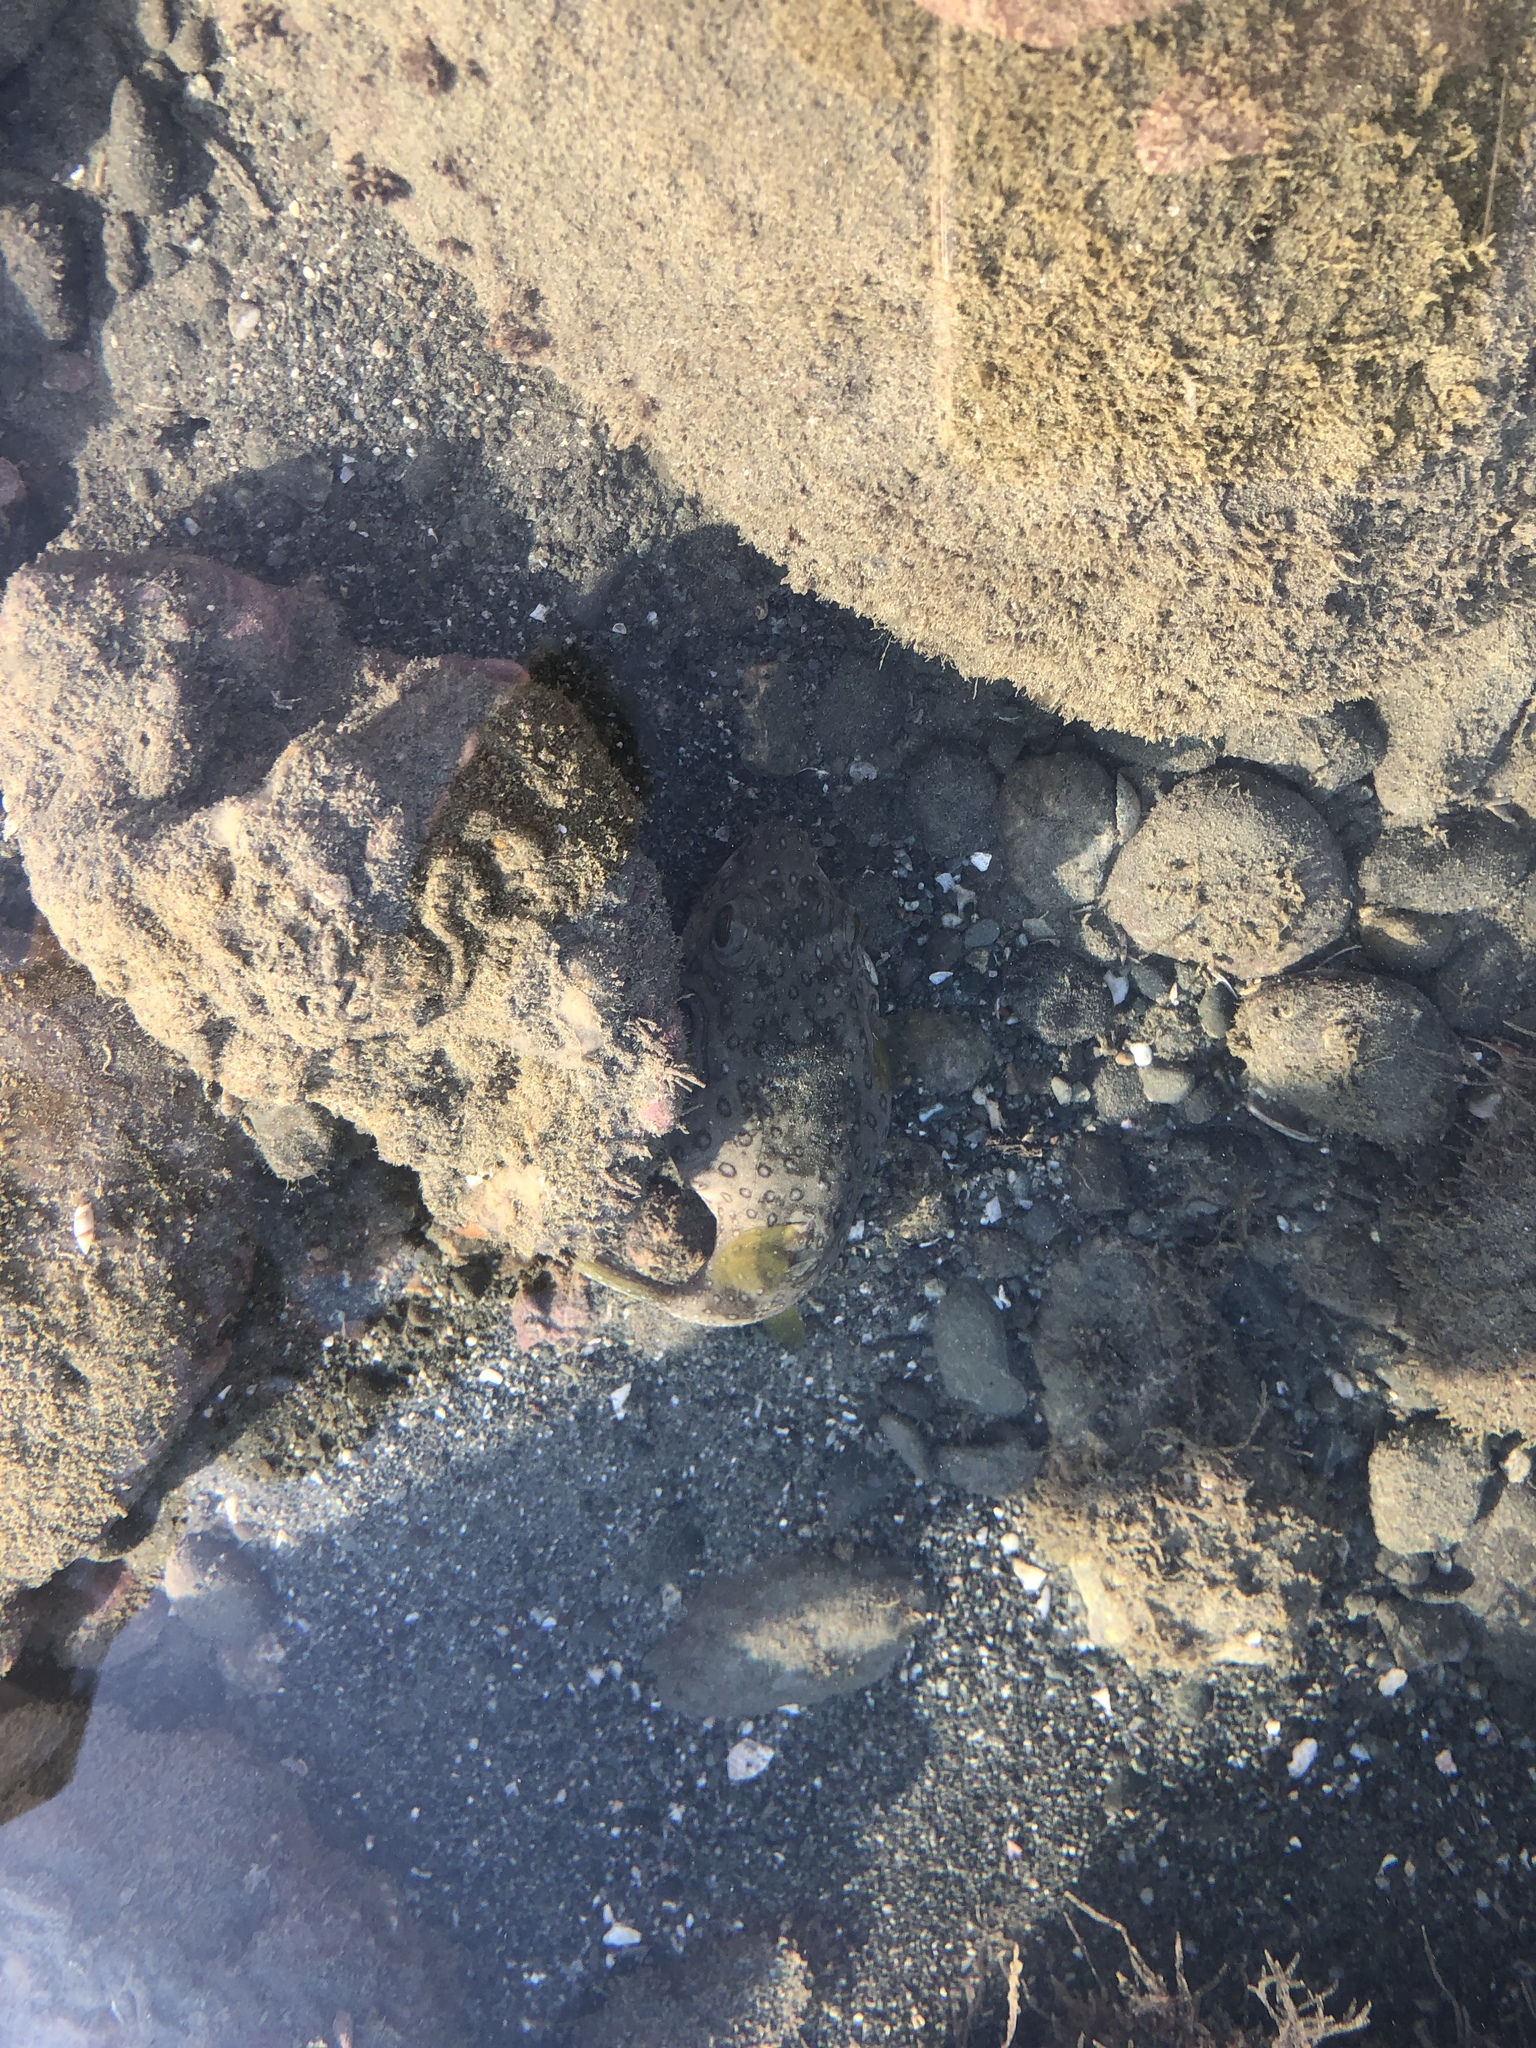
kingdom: Animalia
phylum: Chordata
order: Tetraodontiformes
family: Tetraodontidae
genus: Arothron
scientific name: Arothron hispidus
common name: Stripebelly puffer
